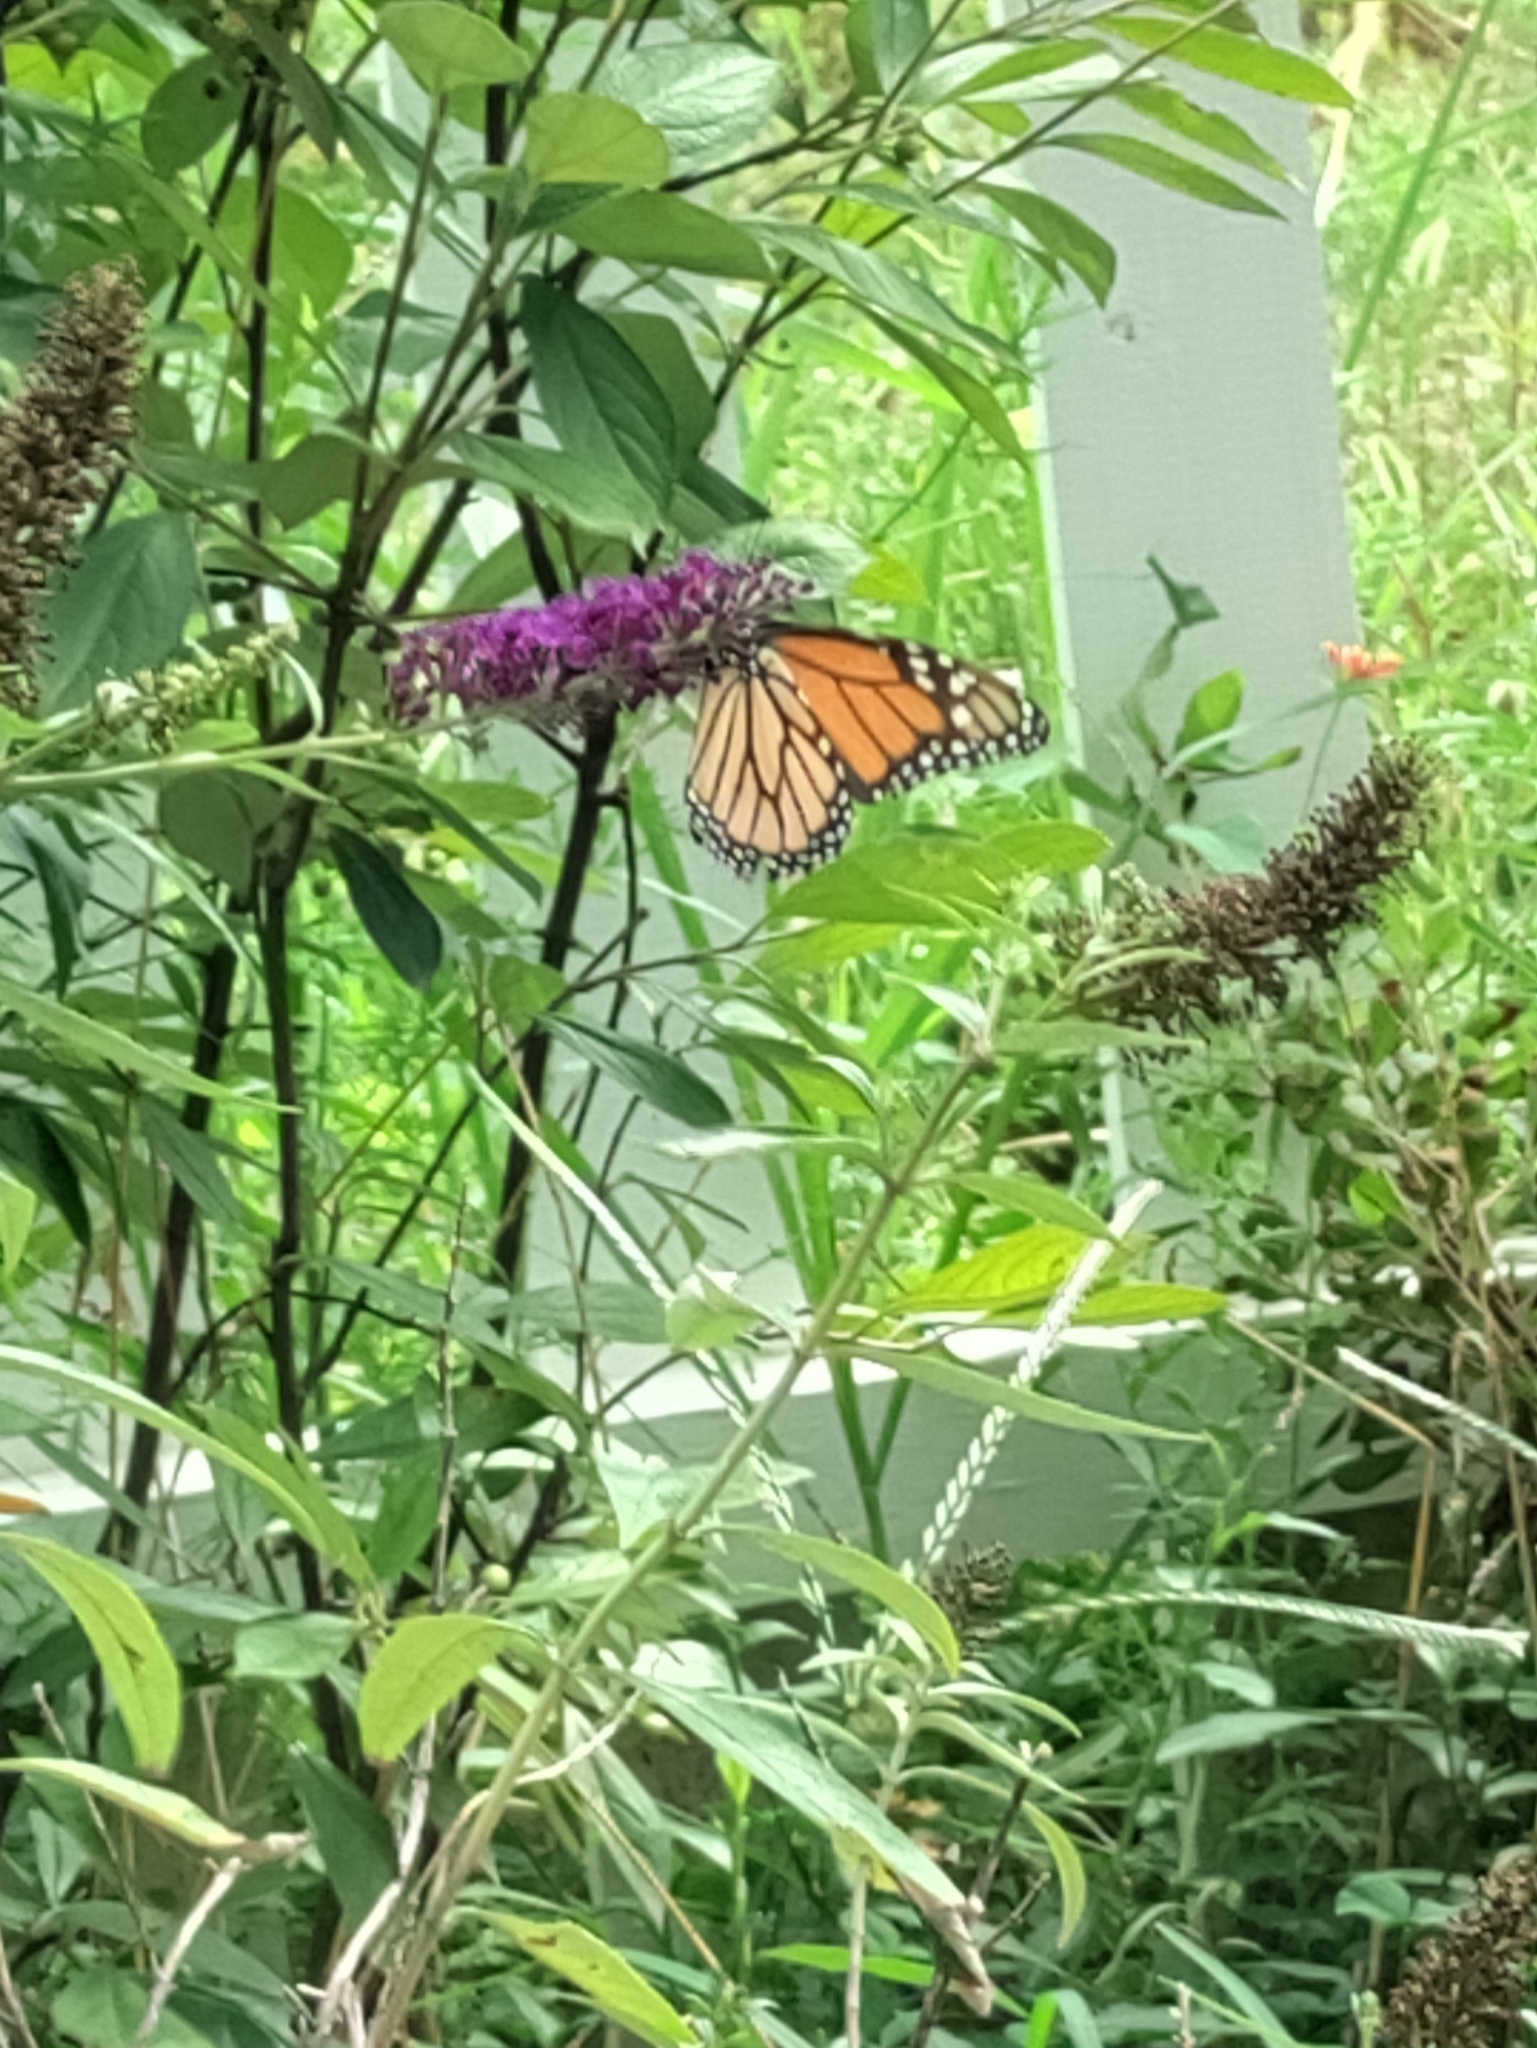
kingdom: Animalia
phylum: Arthropoda
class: Insecta
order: Lepidoptera
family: Nymphalidae
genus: Danaus
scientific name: Danaus plexippus
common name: Monarch
